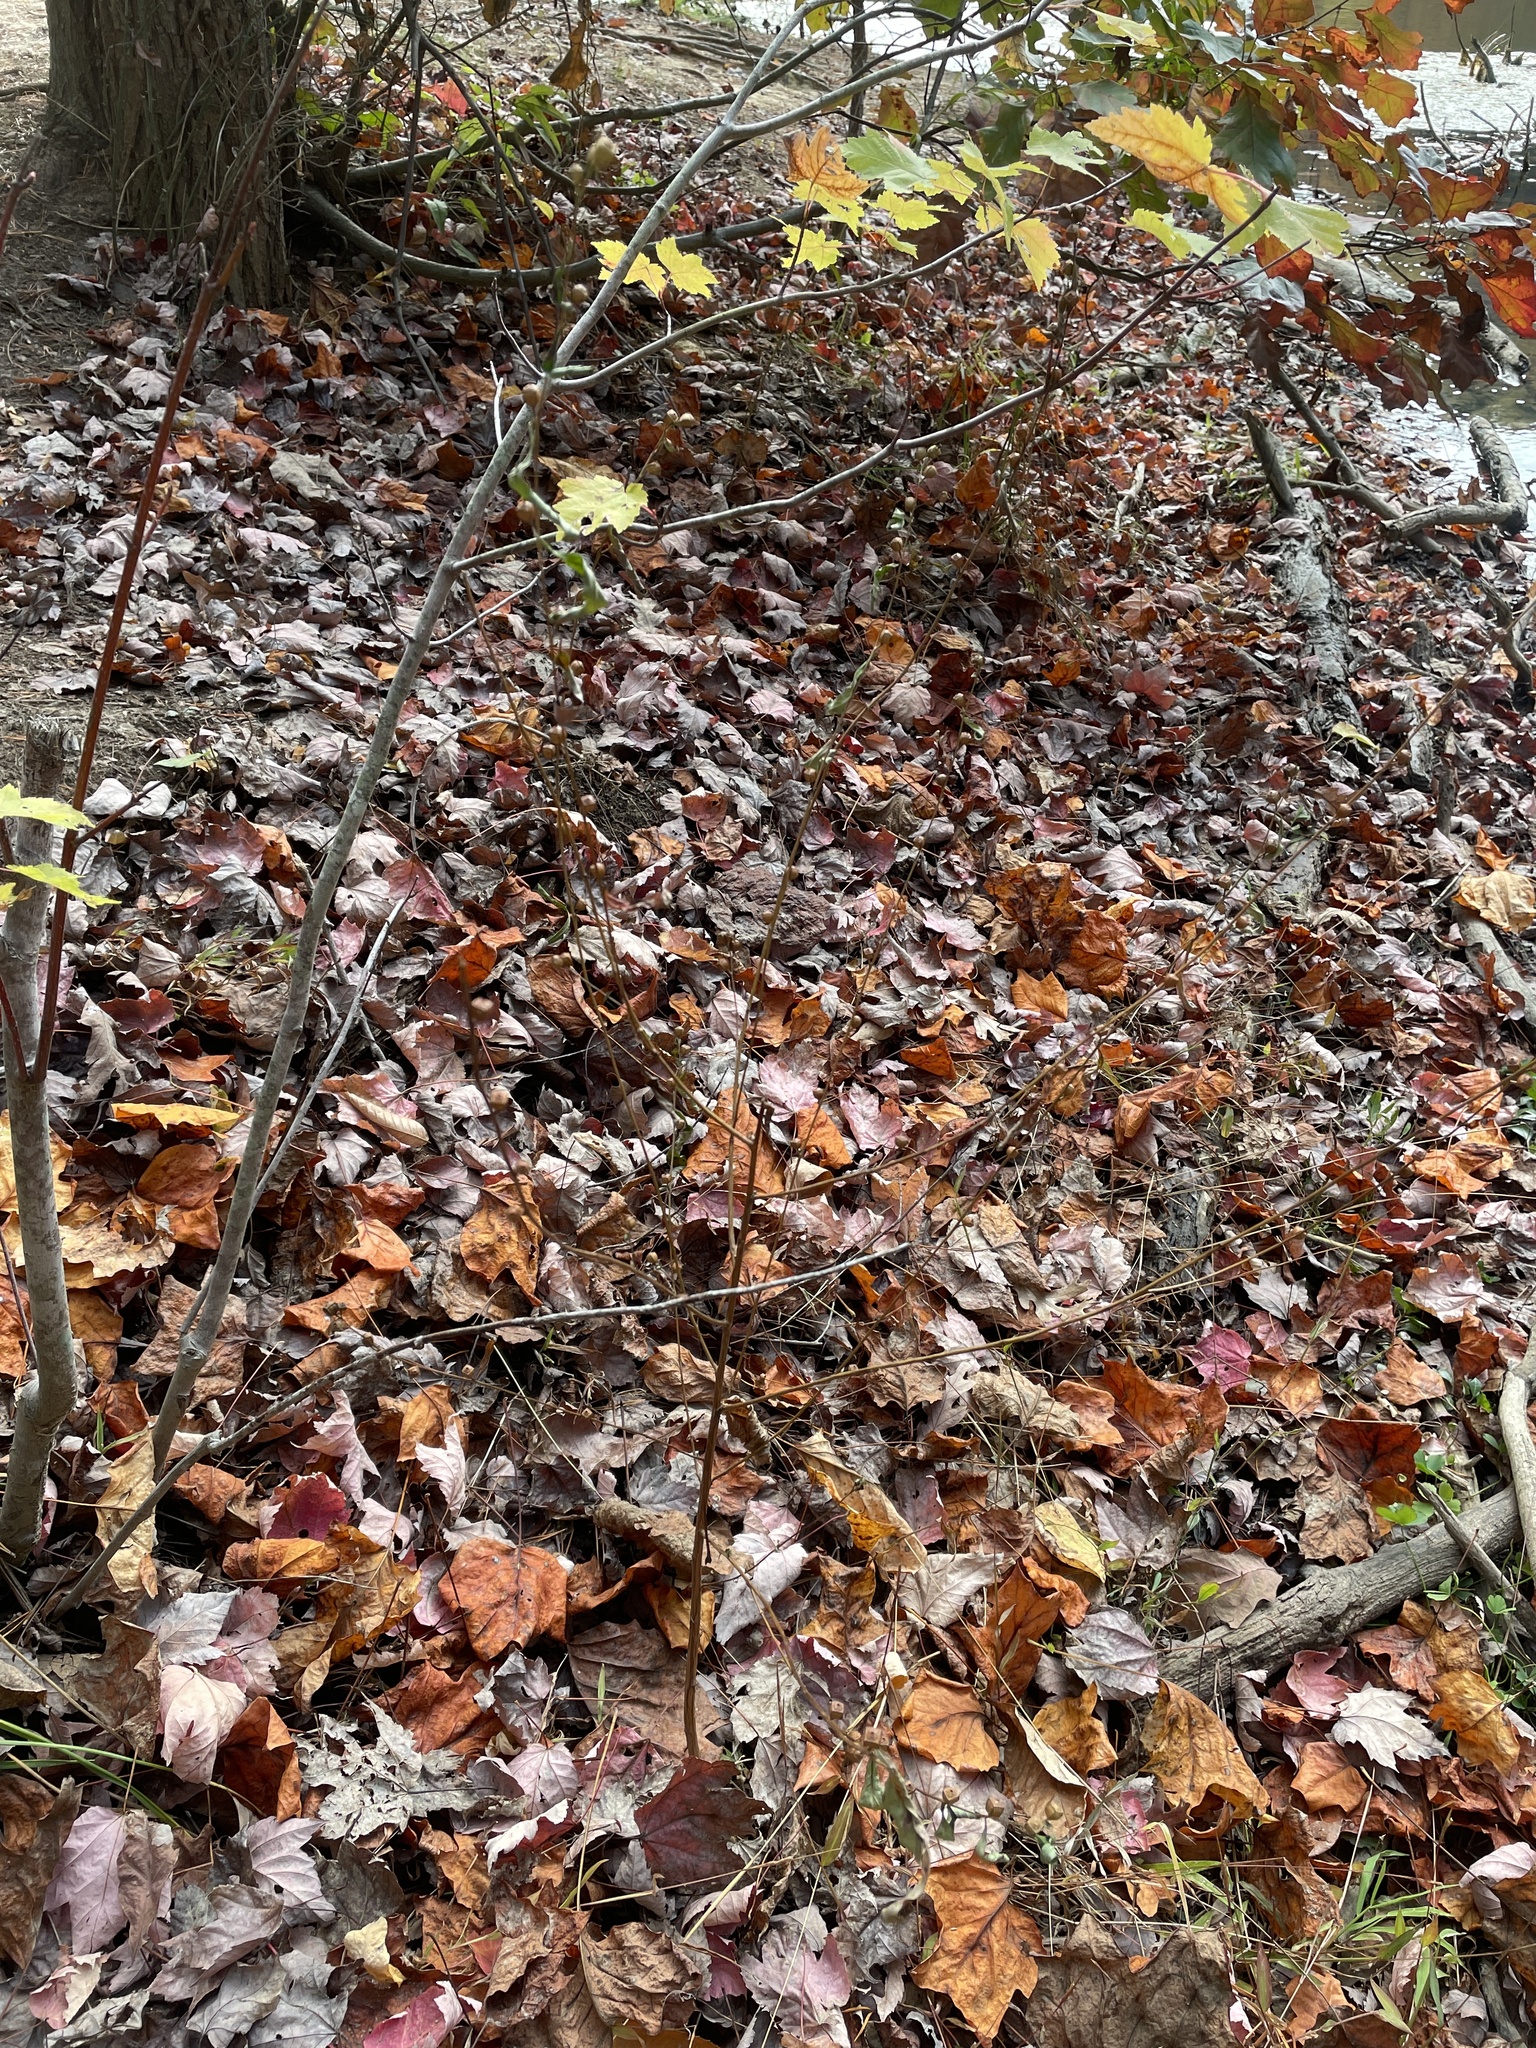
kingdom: Plantae
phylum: Tracheophyta
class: Magnoliopsida
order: Myrtales
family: Onagraceae
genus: Ludwigia
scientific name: Ludwigia alternifolia
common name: Rattlebox
